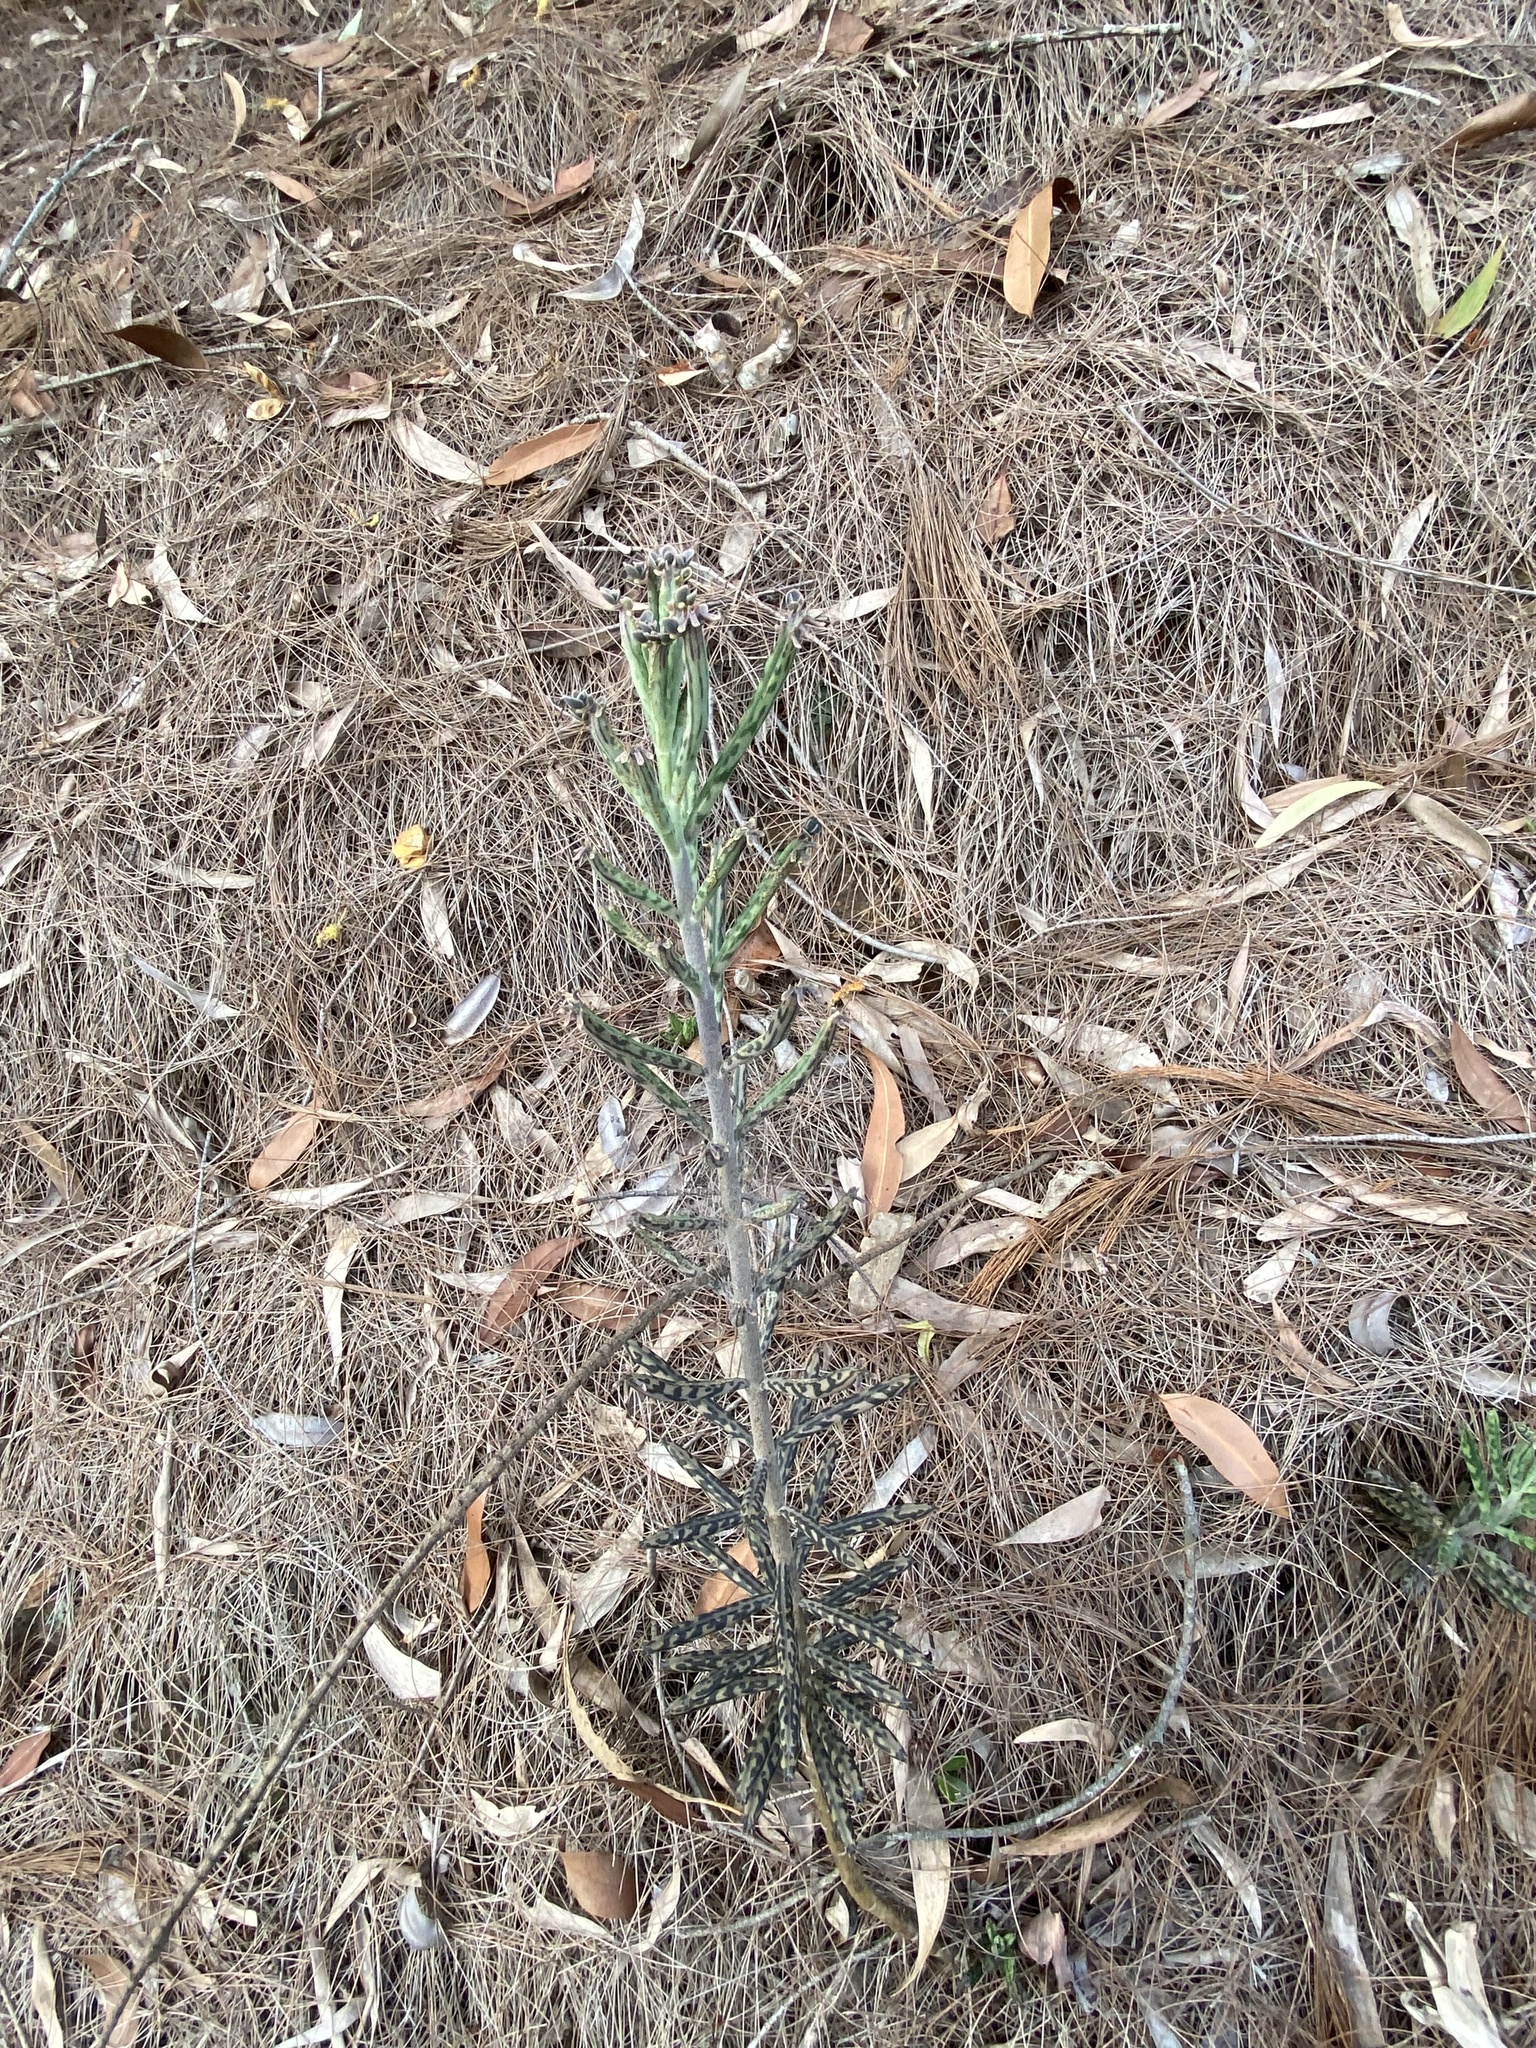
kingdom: Plantae
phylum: Tracheophyta
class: Magnoliopsida
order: Saxifragales
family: Crassulaceae
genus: Kalanchoe
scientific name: Kalanchoe delagoensis
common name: Chandelier plant
